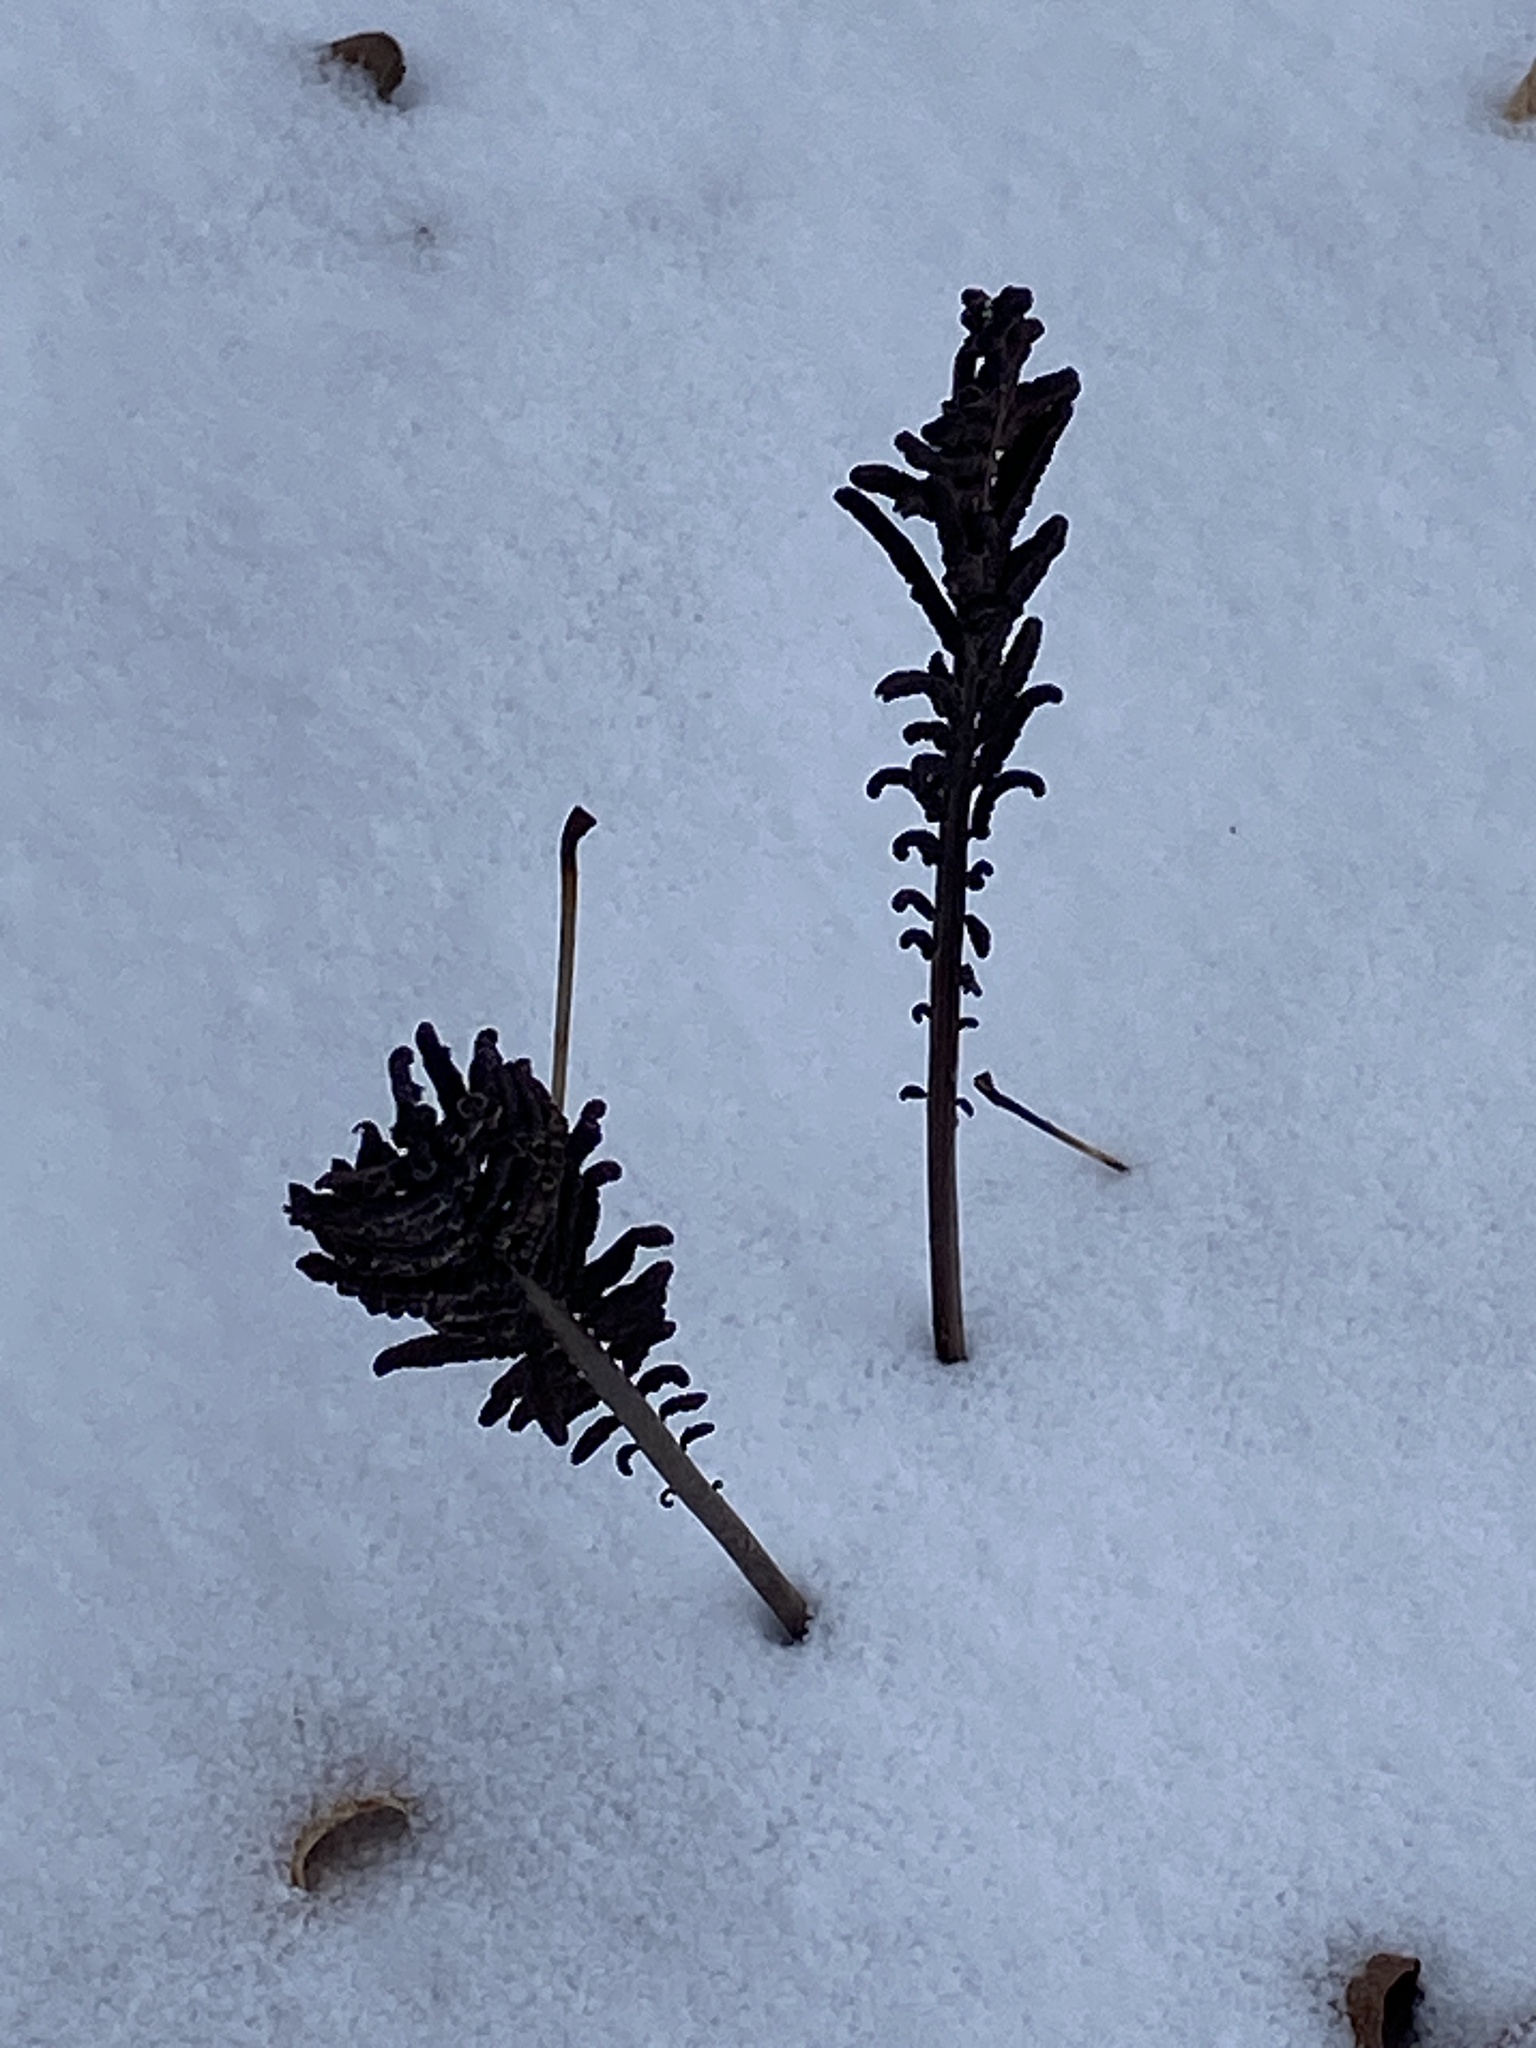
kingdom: Plantae
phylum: Tracheophyta
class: Polypodiopsida
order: Polypodiales
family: Onocleaceae
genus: Matteuccia
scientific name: Matteuccia struthiopteris
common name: Ostrich fern
